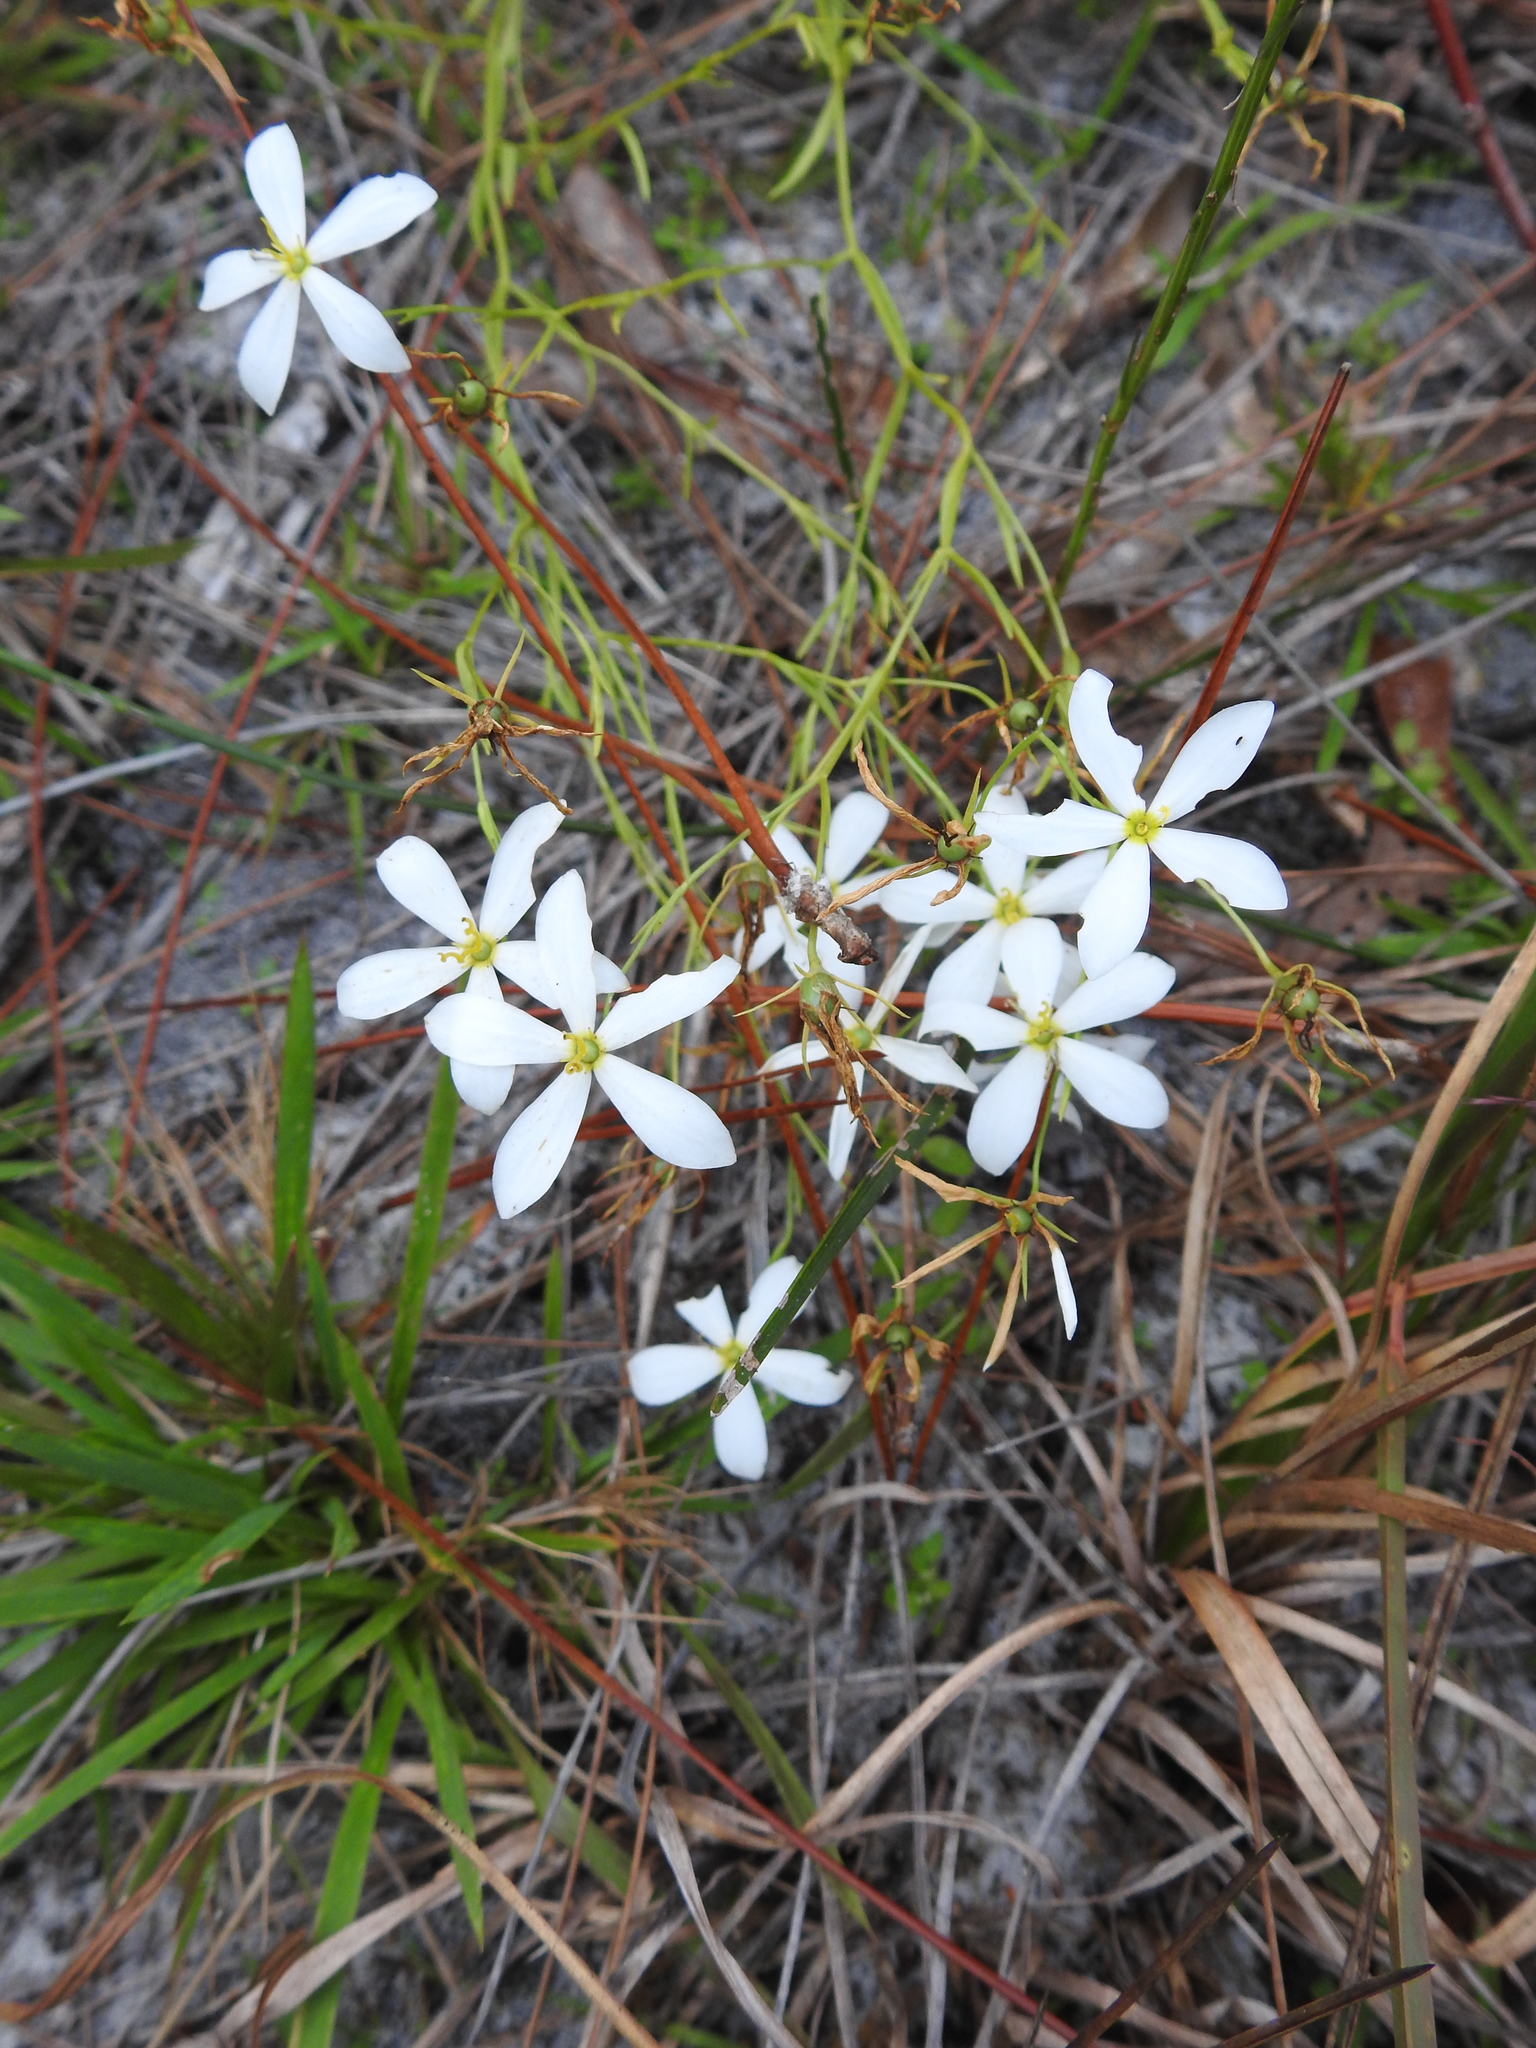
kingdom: Plantae
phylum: Tracheophyta
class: Magnoliopsida
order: Gentianales
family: Gentianaceae
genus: Sabatia
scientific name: Sabatia brevifolia
